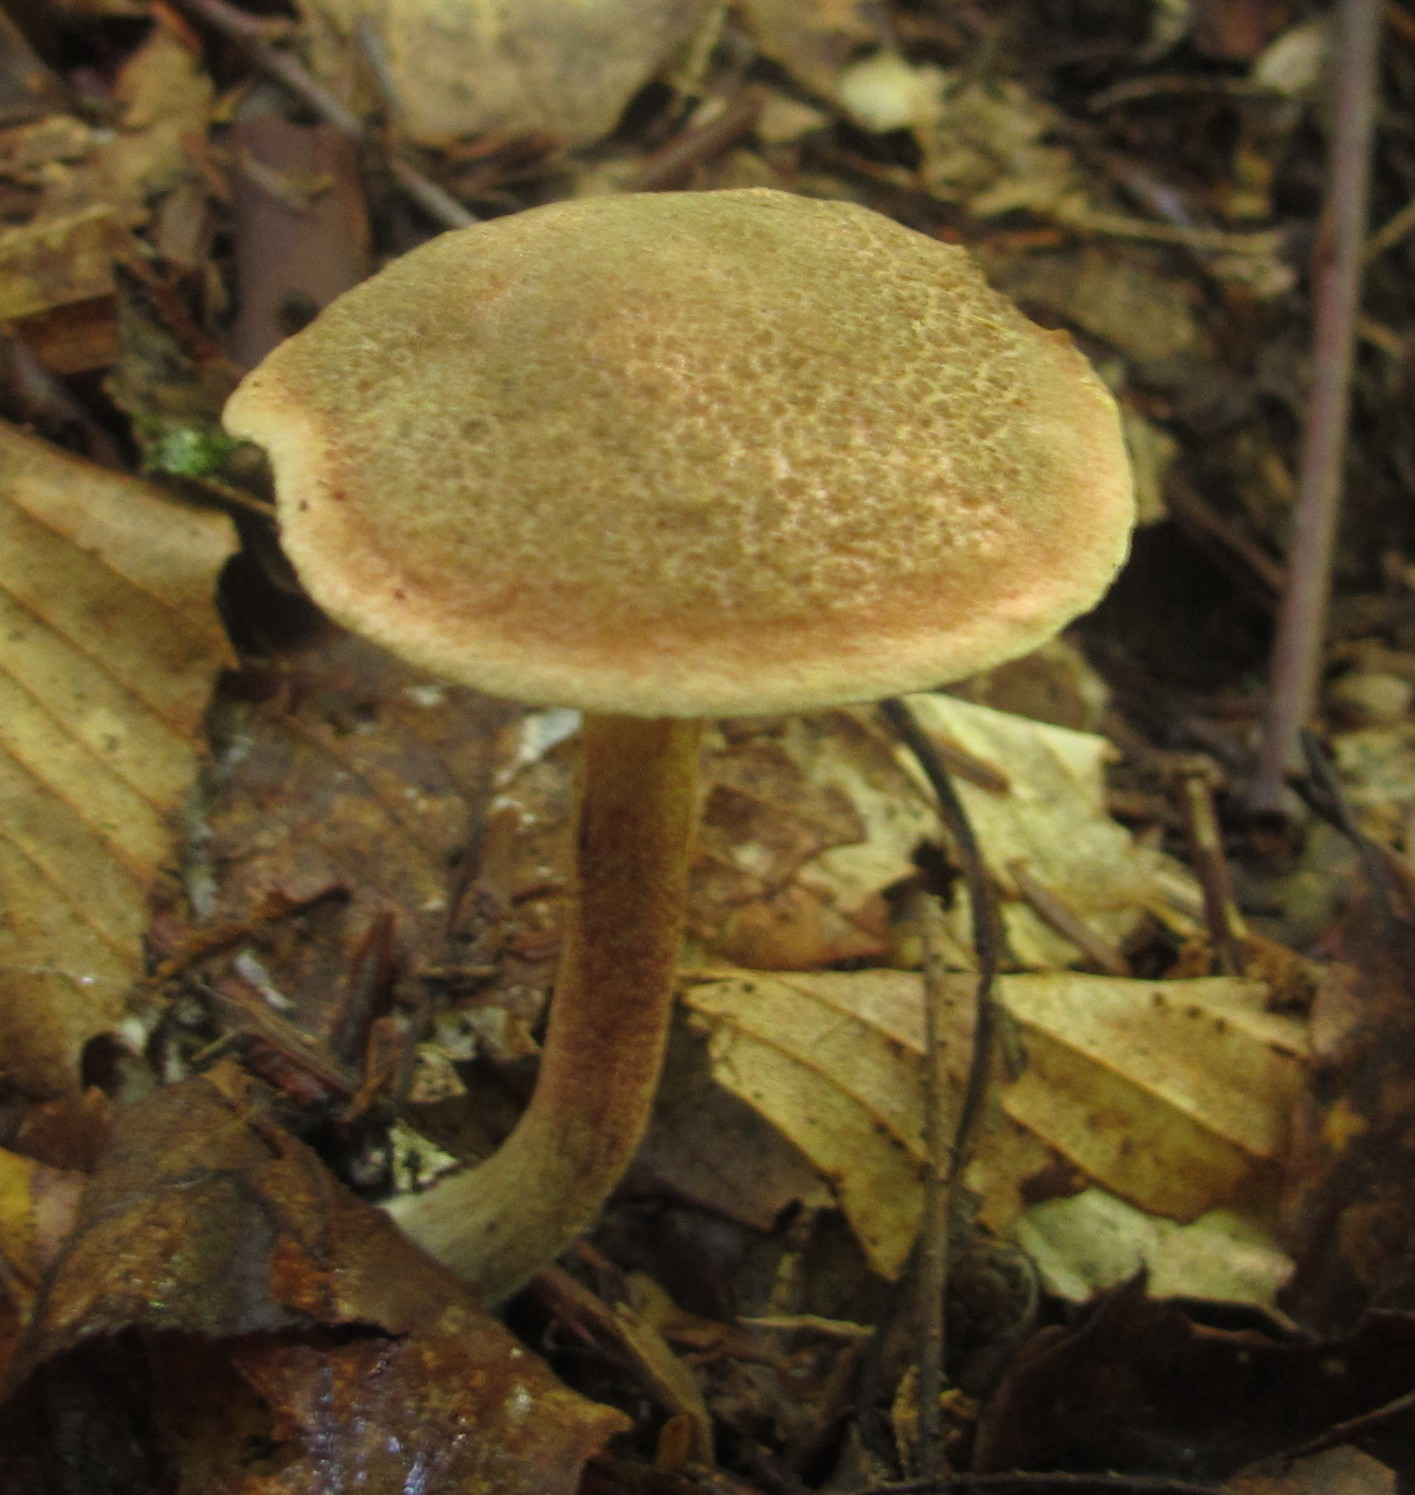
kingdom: Fungi
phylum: Basidiomycota
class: Agaricomycetes
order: Boletales
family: Boletaceae
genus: Xerocomellus
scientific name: Xerocomellus chrysenteron
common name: Red-cracking bolete
